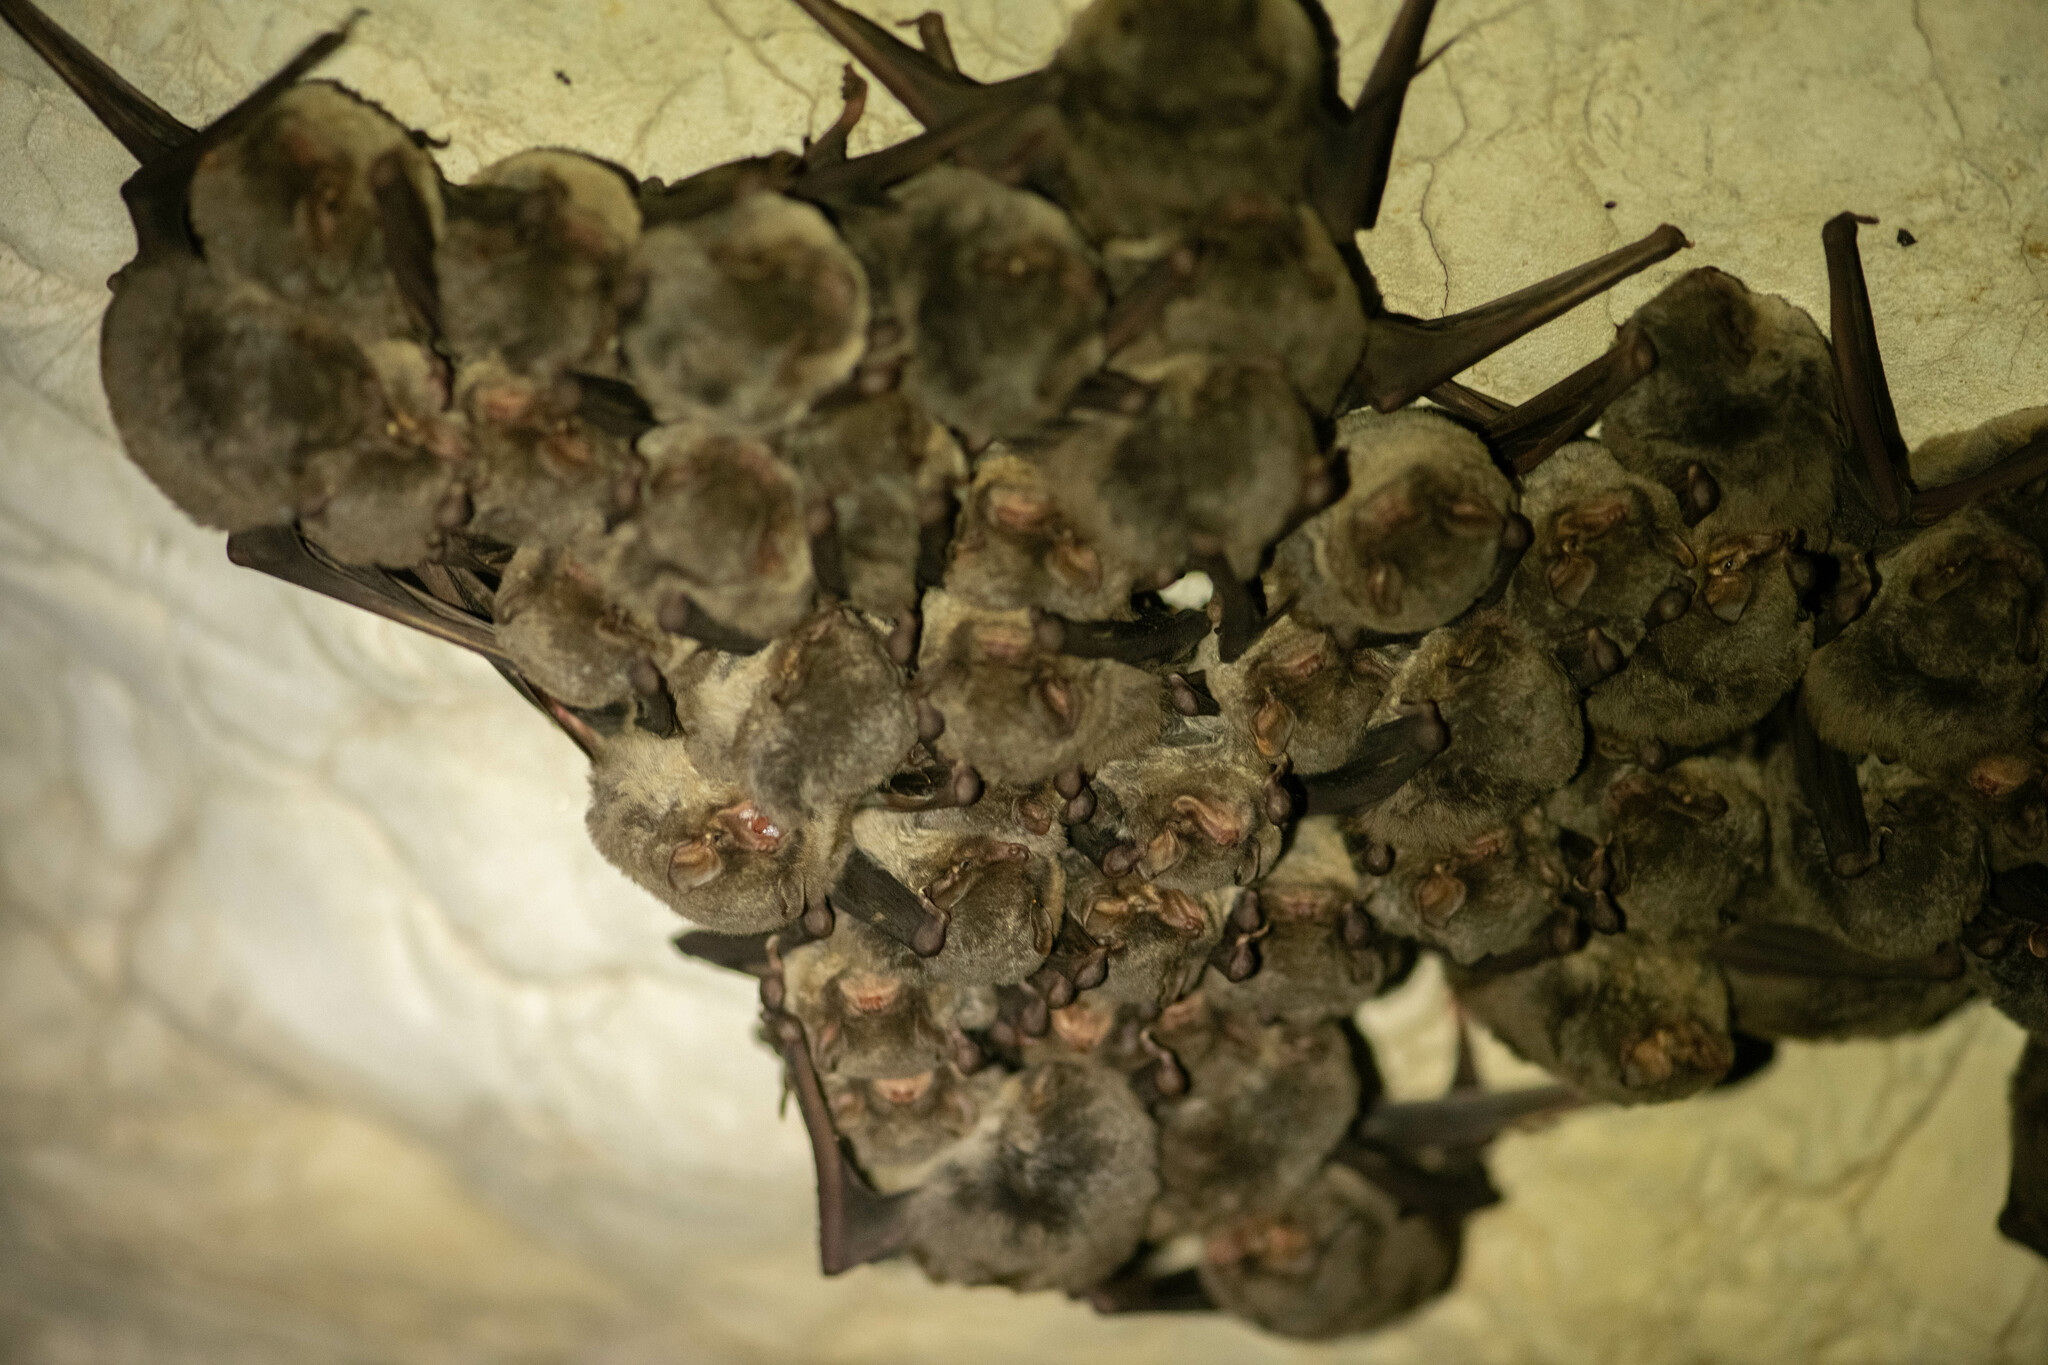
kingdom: Animalia
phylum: Chordata
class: Mammalia
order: Chiroptera
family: Miniopteridae
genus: Miniopterus
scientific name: Miniopterus schreibersii
